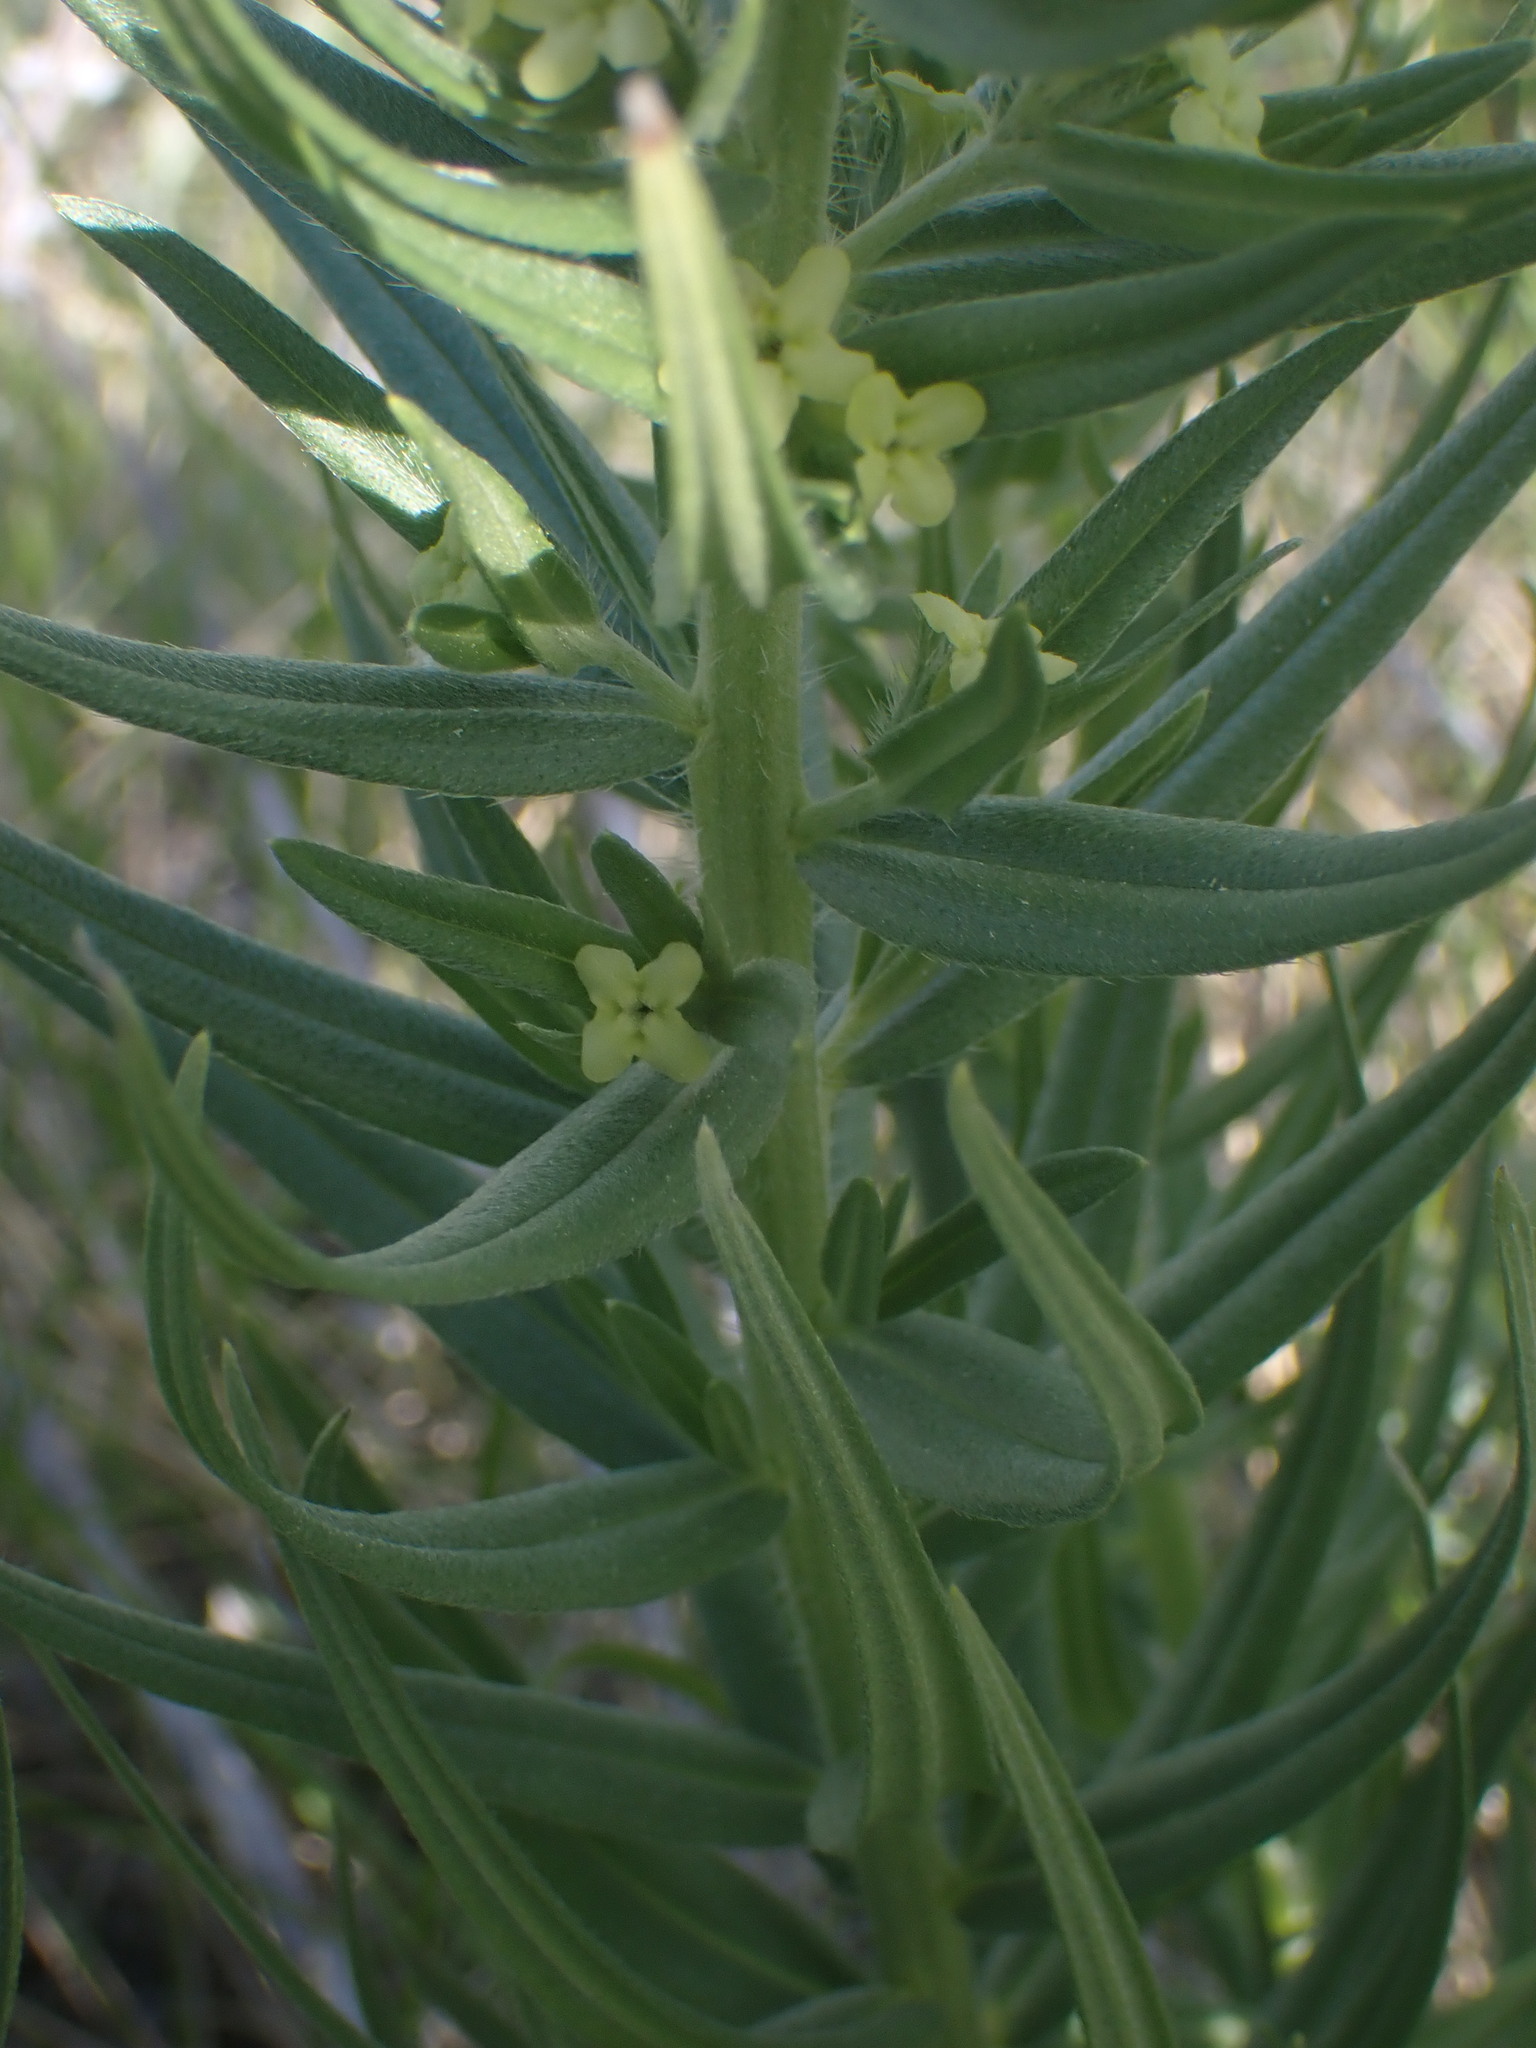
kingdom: Plantae
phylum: Tracheophyta
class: Magnoliopsida
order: Boraginales
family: Boraginaceae
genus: Lithospermum
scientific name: Lithospermum ruderale
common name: Western gromwell
